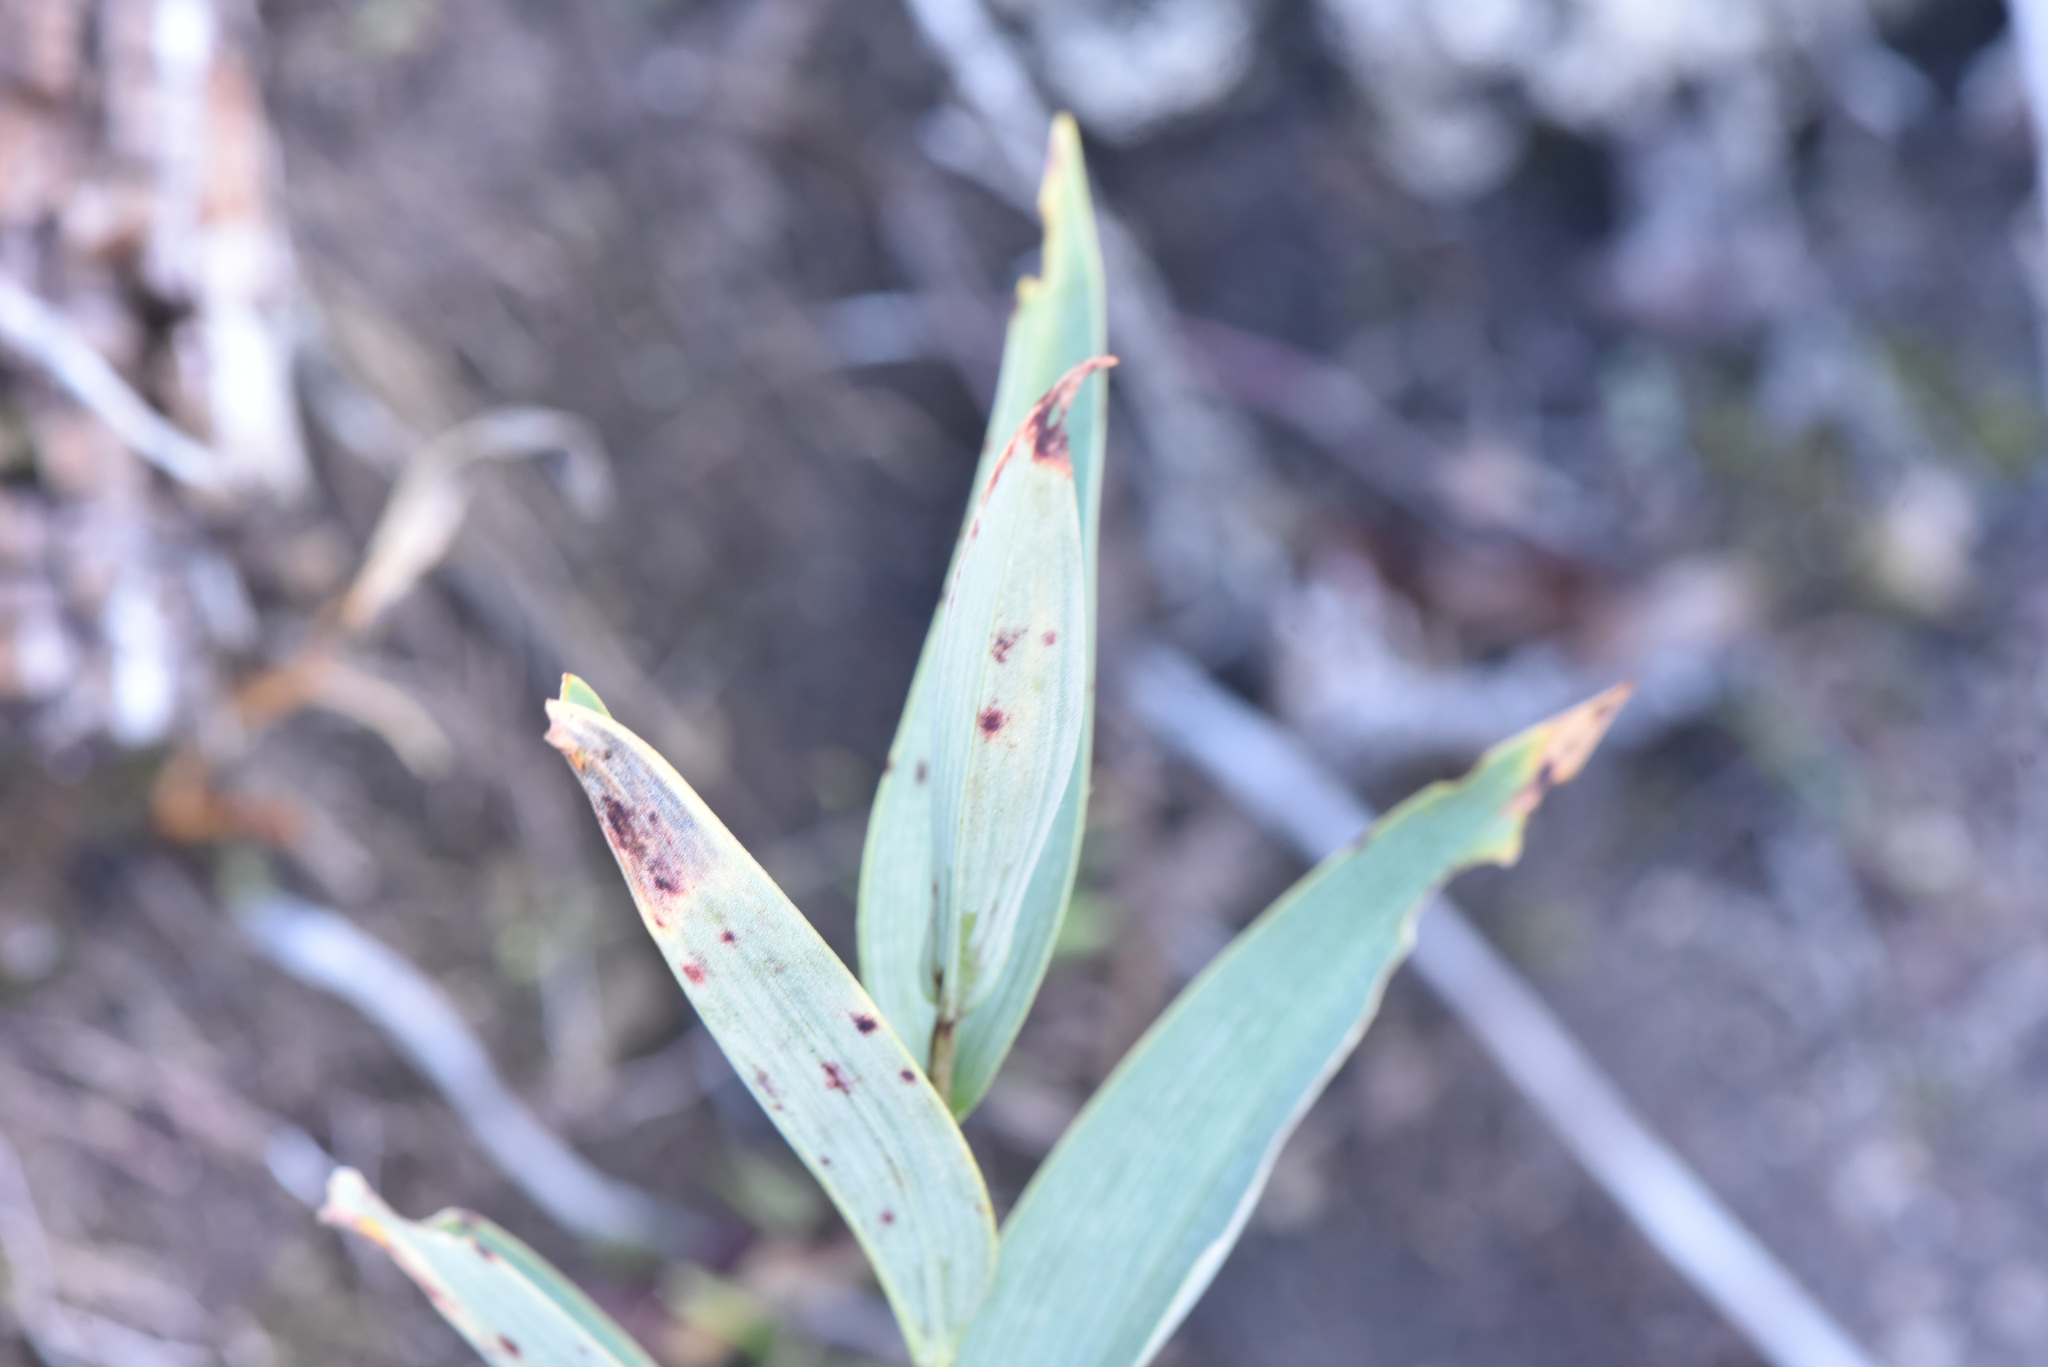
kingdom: Plantae
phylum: Tracheophyta
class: Liliopsida
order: Asparagales
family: Asparagaceae
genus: Maianthemum
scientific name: Maianthemum stellatum
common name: Little false solomon's seal
